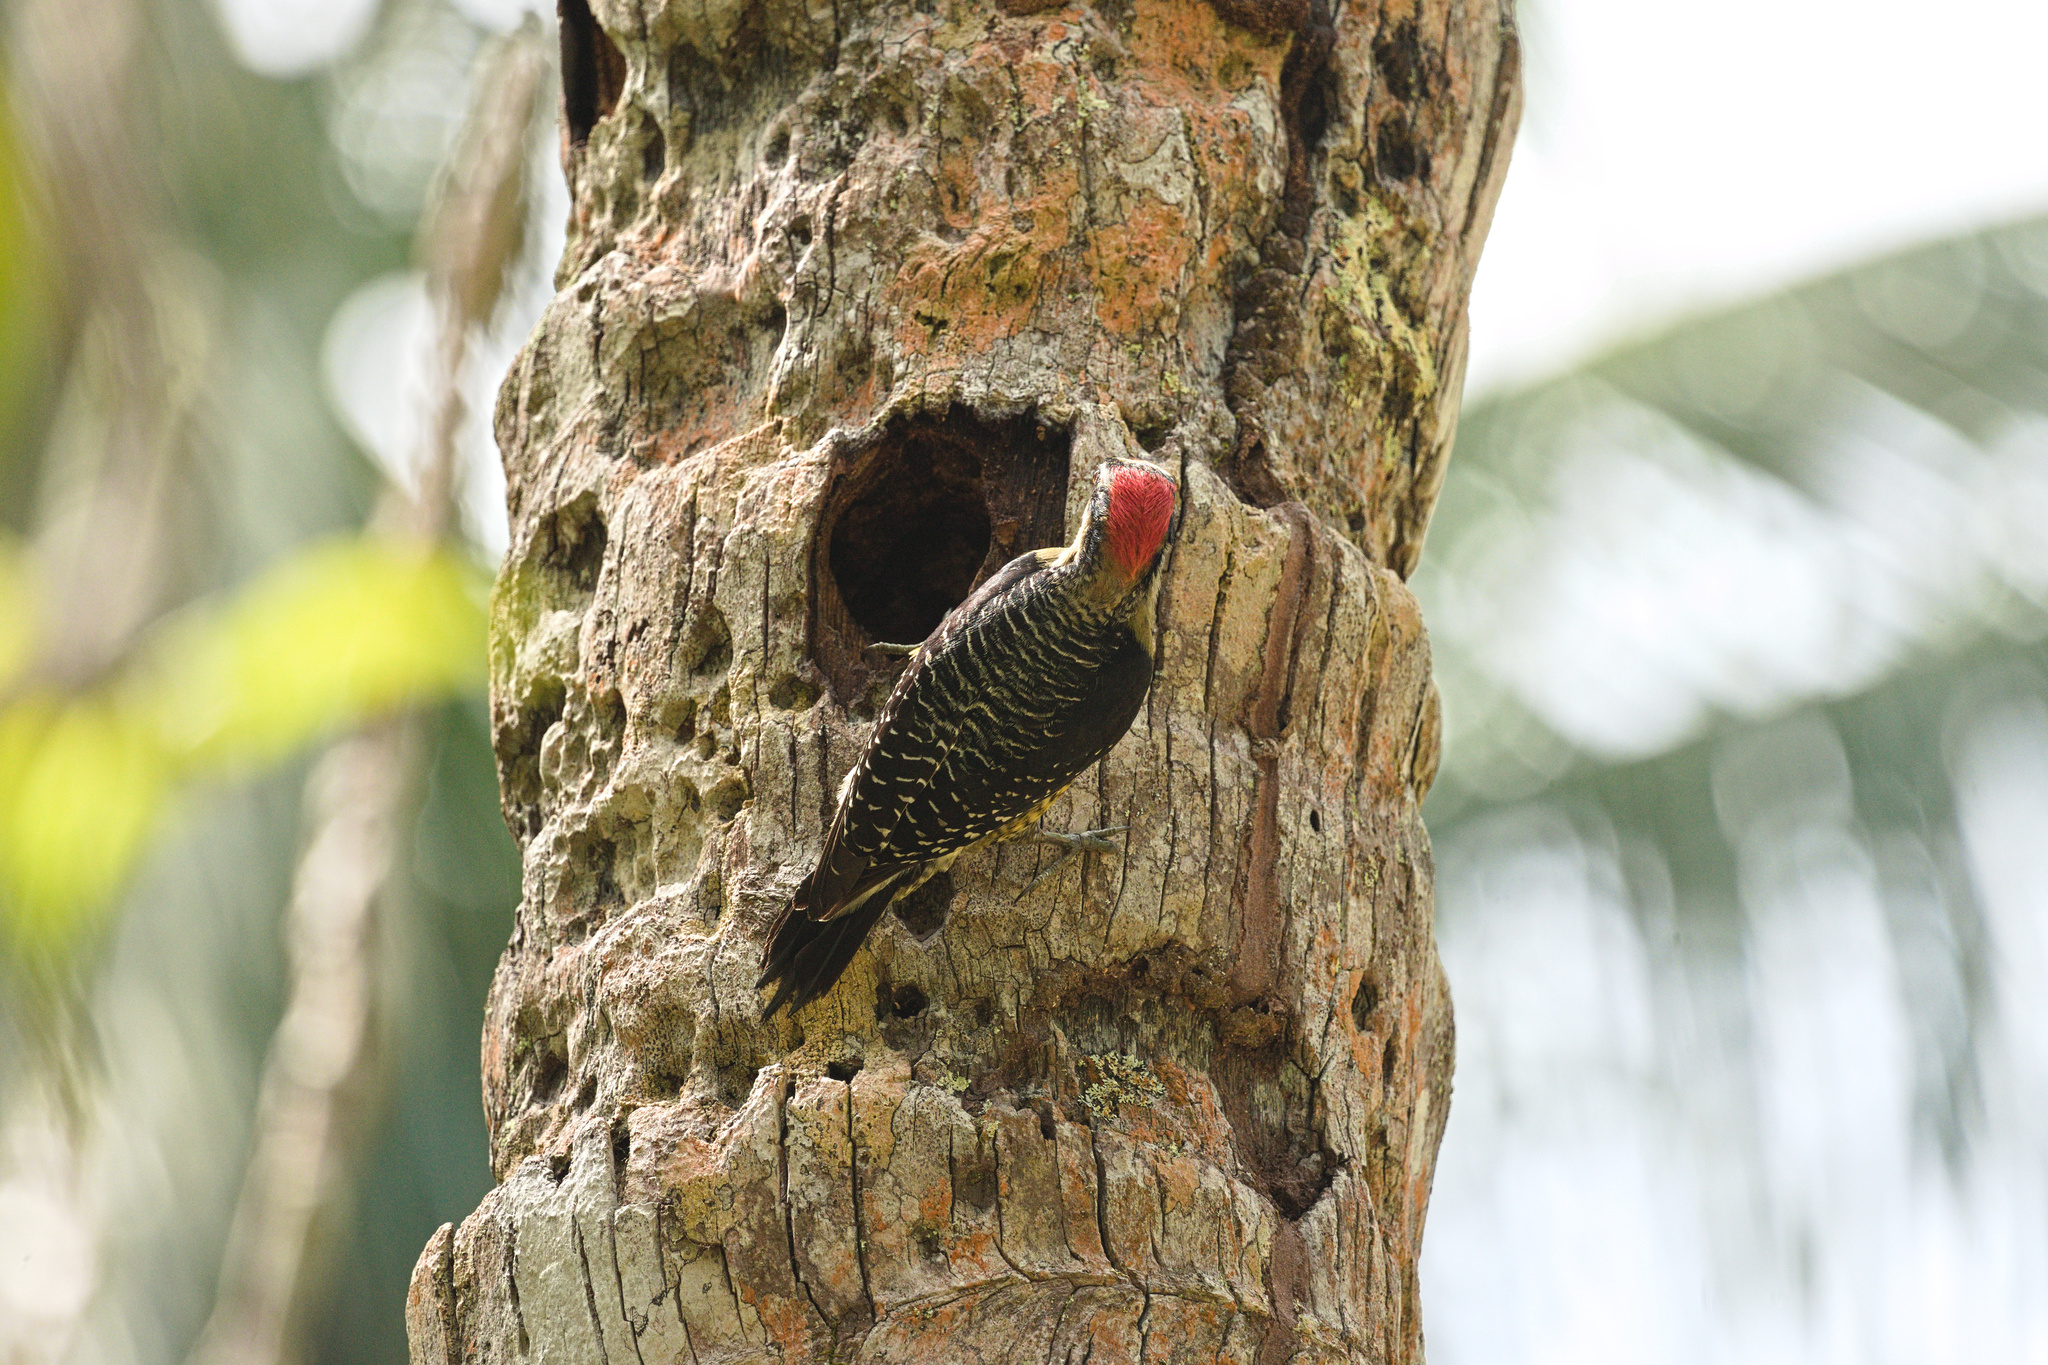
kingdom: Animalia
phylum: Chordata
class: Aves
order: Piciformes
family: Picidae
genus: Melanerpes
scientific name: Melanerpes pucherani
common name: Black-cheeked woodpecker
